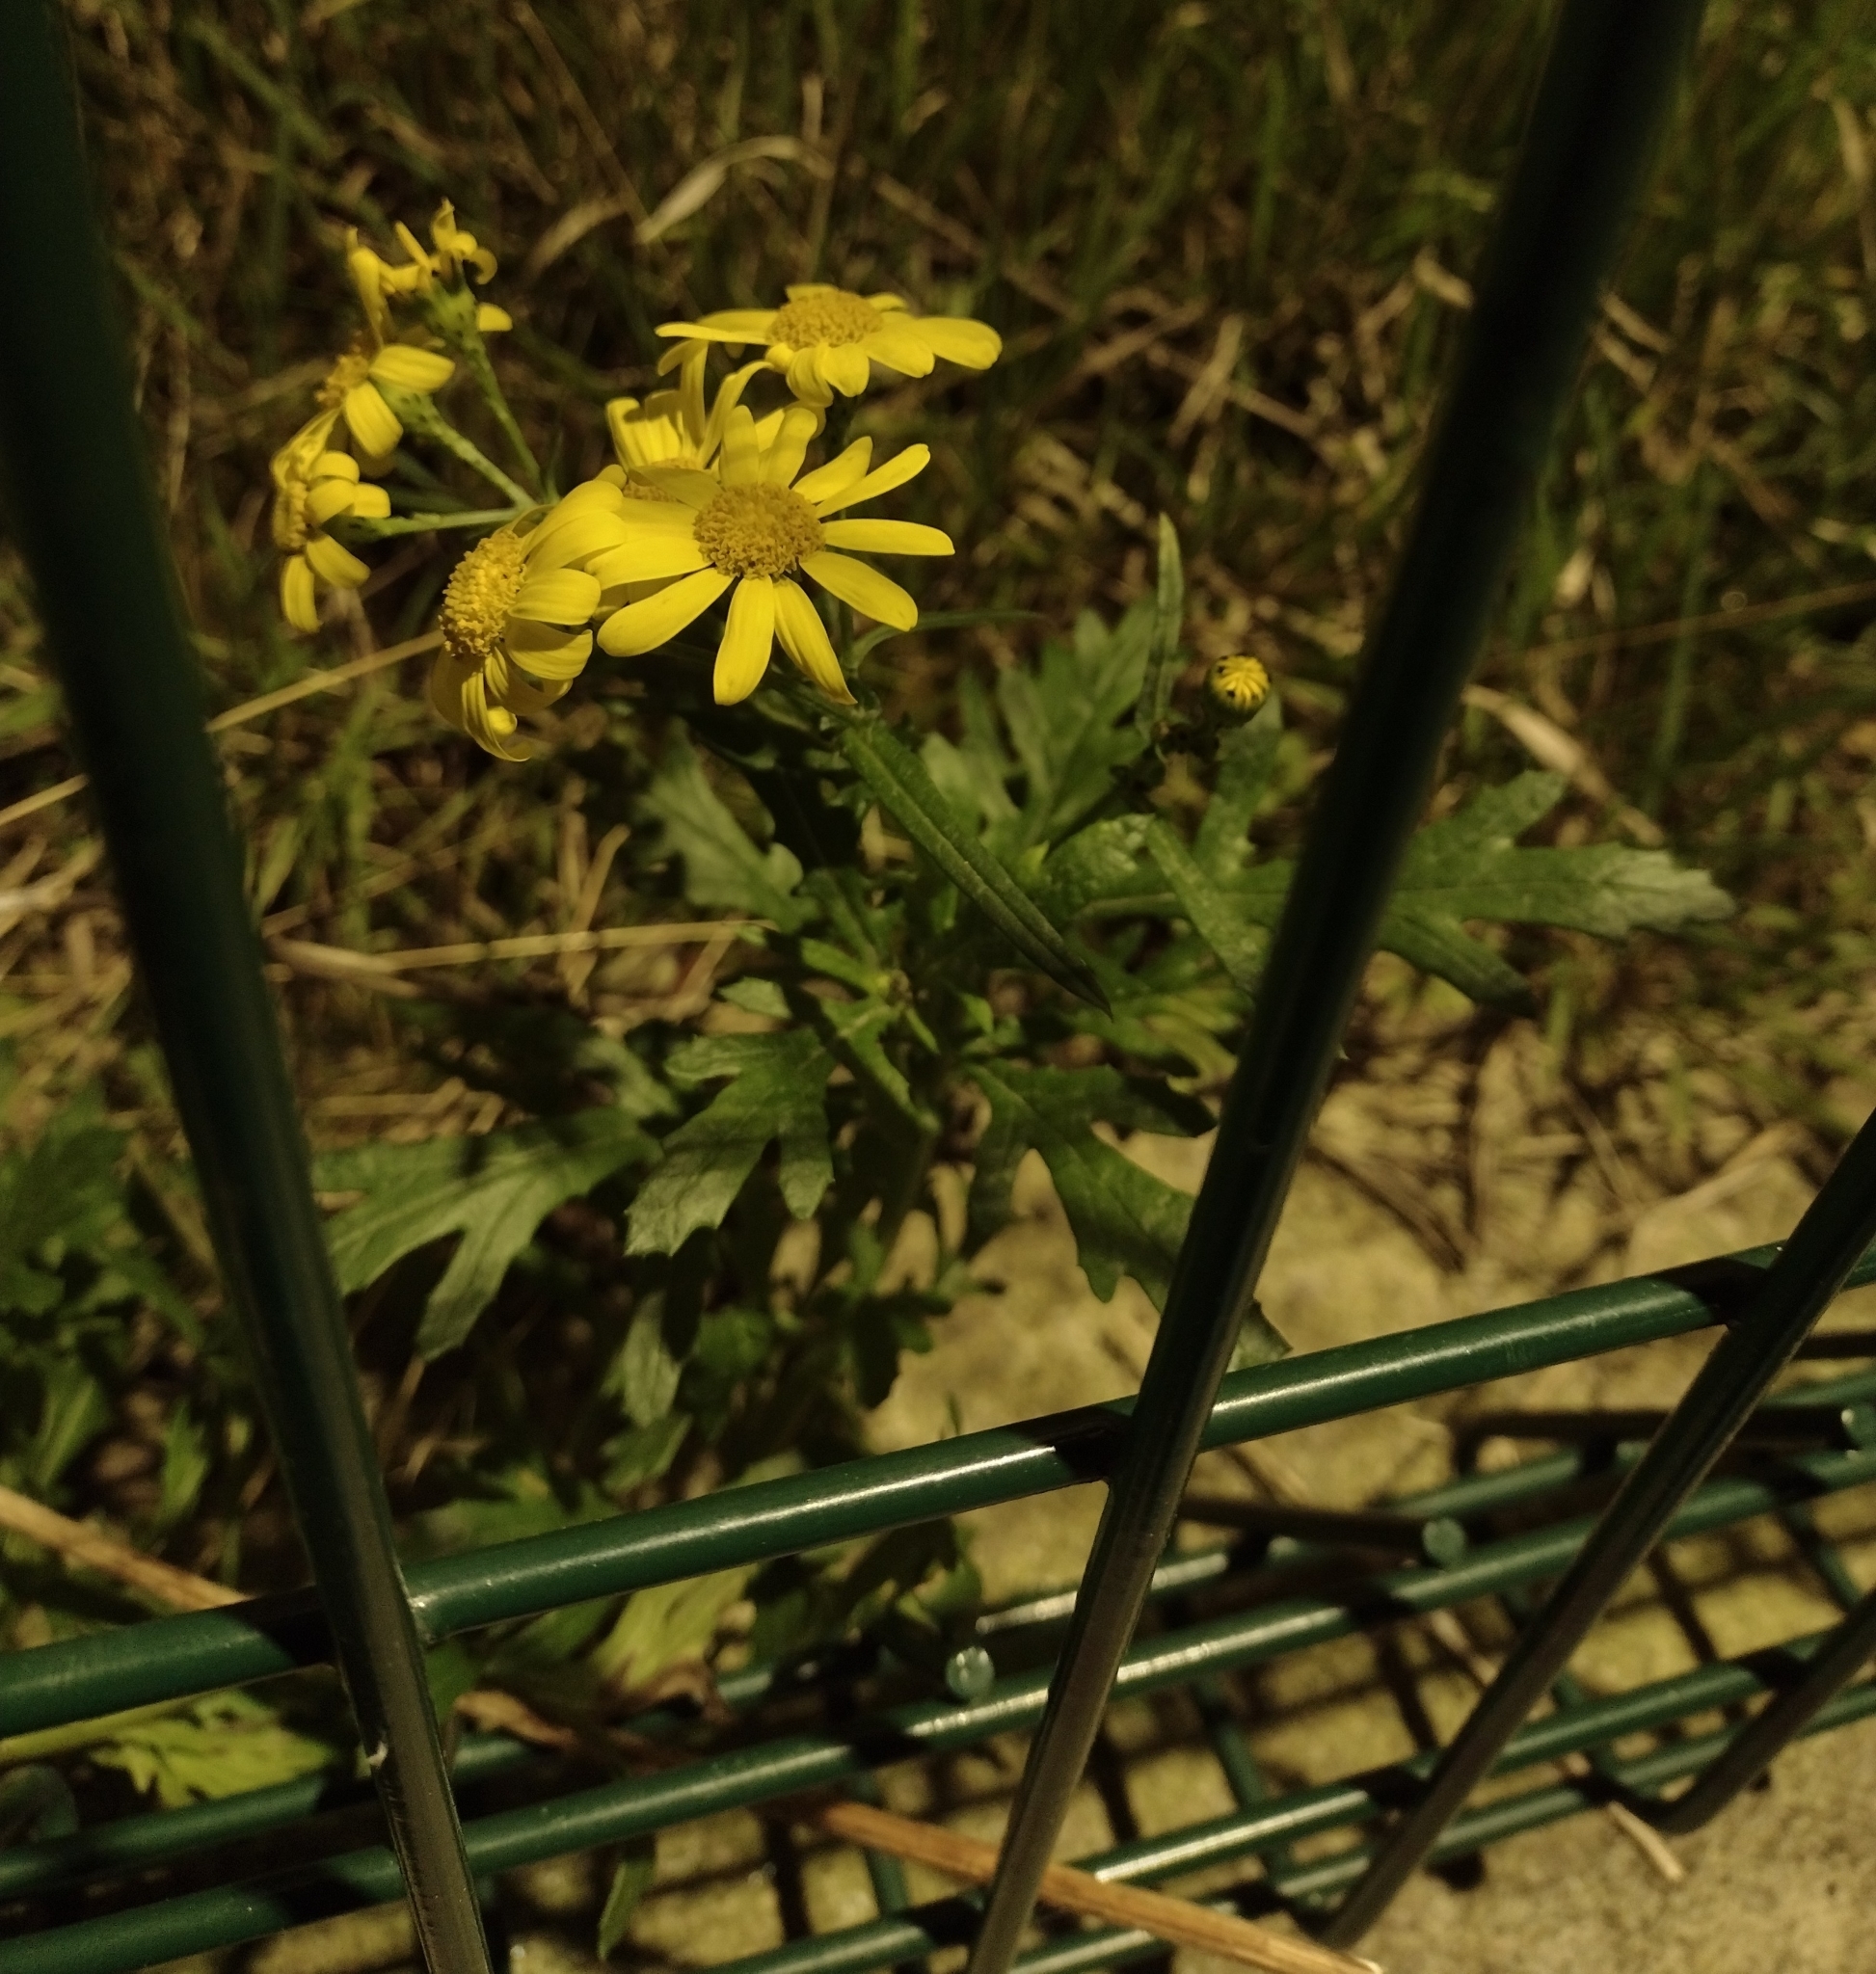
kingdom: Plantae
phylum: Tracheophyta
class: Magnoliopsida
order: Asterales
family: Asteraceae
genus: Senecio
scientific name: Senecio squalidus
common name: Oxford ragwort
